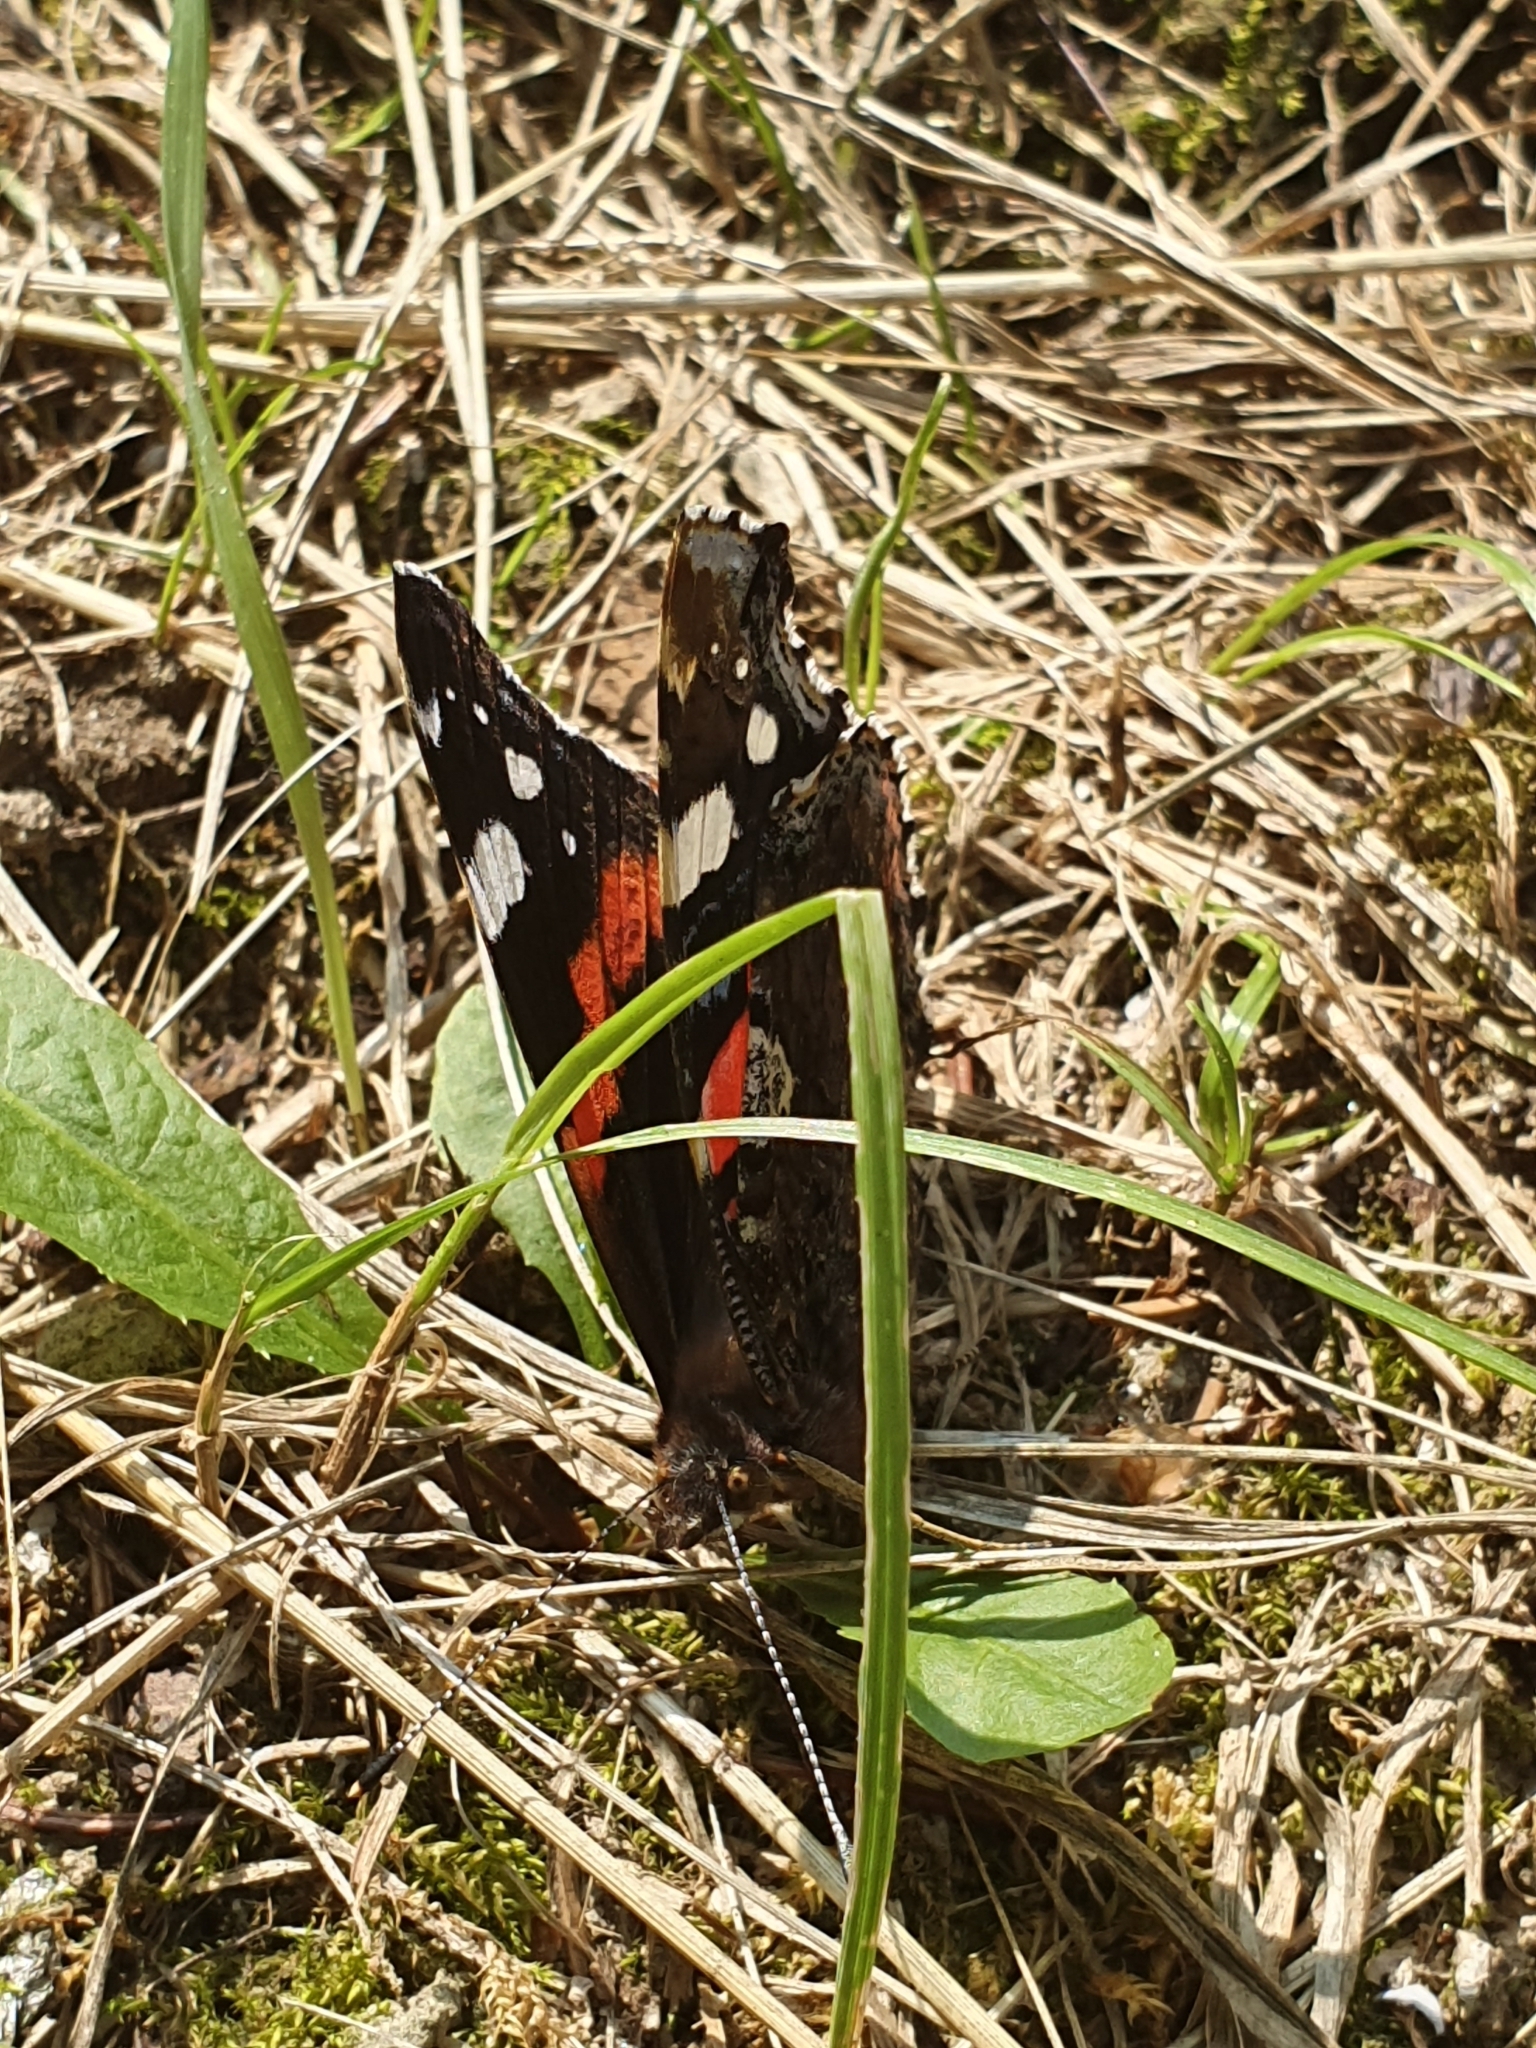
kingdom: Animalia
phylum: Arthropoda
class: Insecta
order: Lepidoptera
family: Nymphalidae
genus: Vanessa
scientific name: Vanessa atalanta
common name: Red admiral
